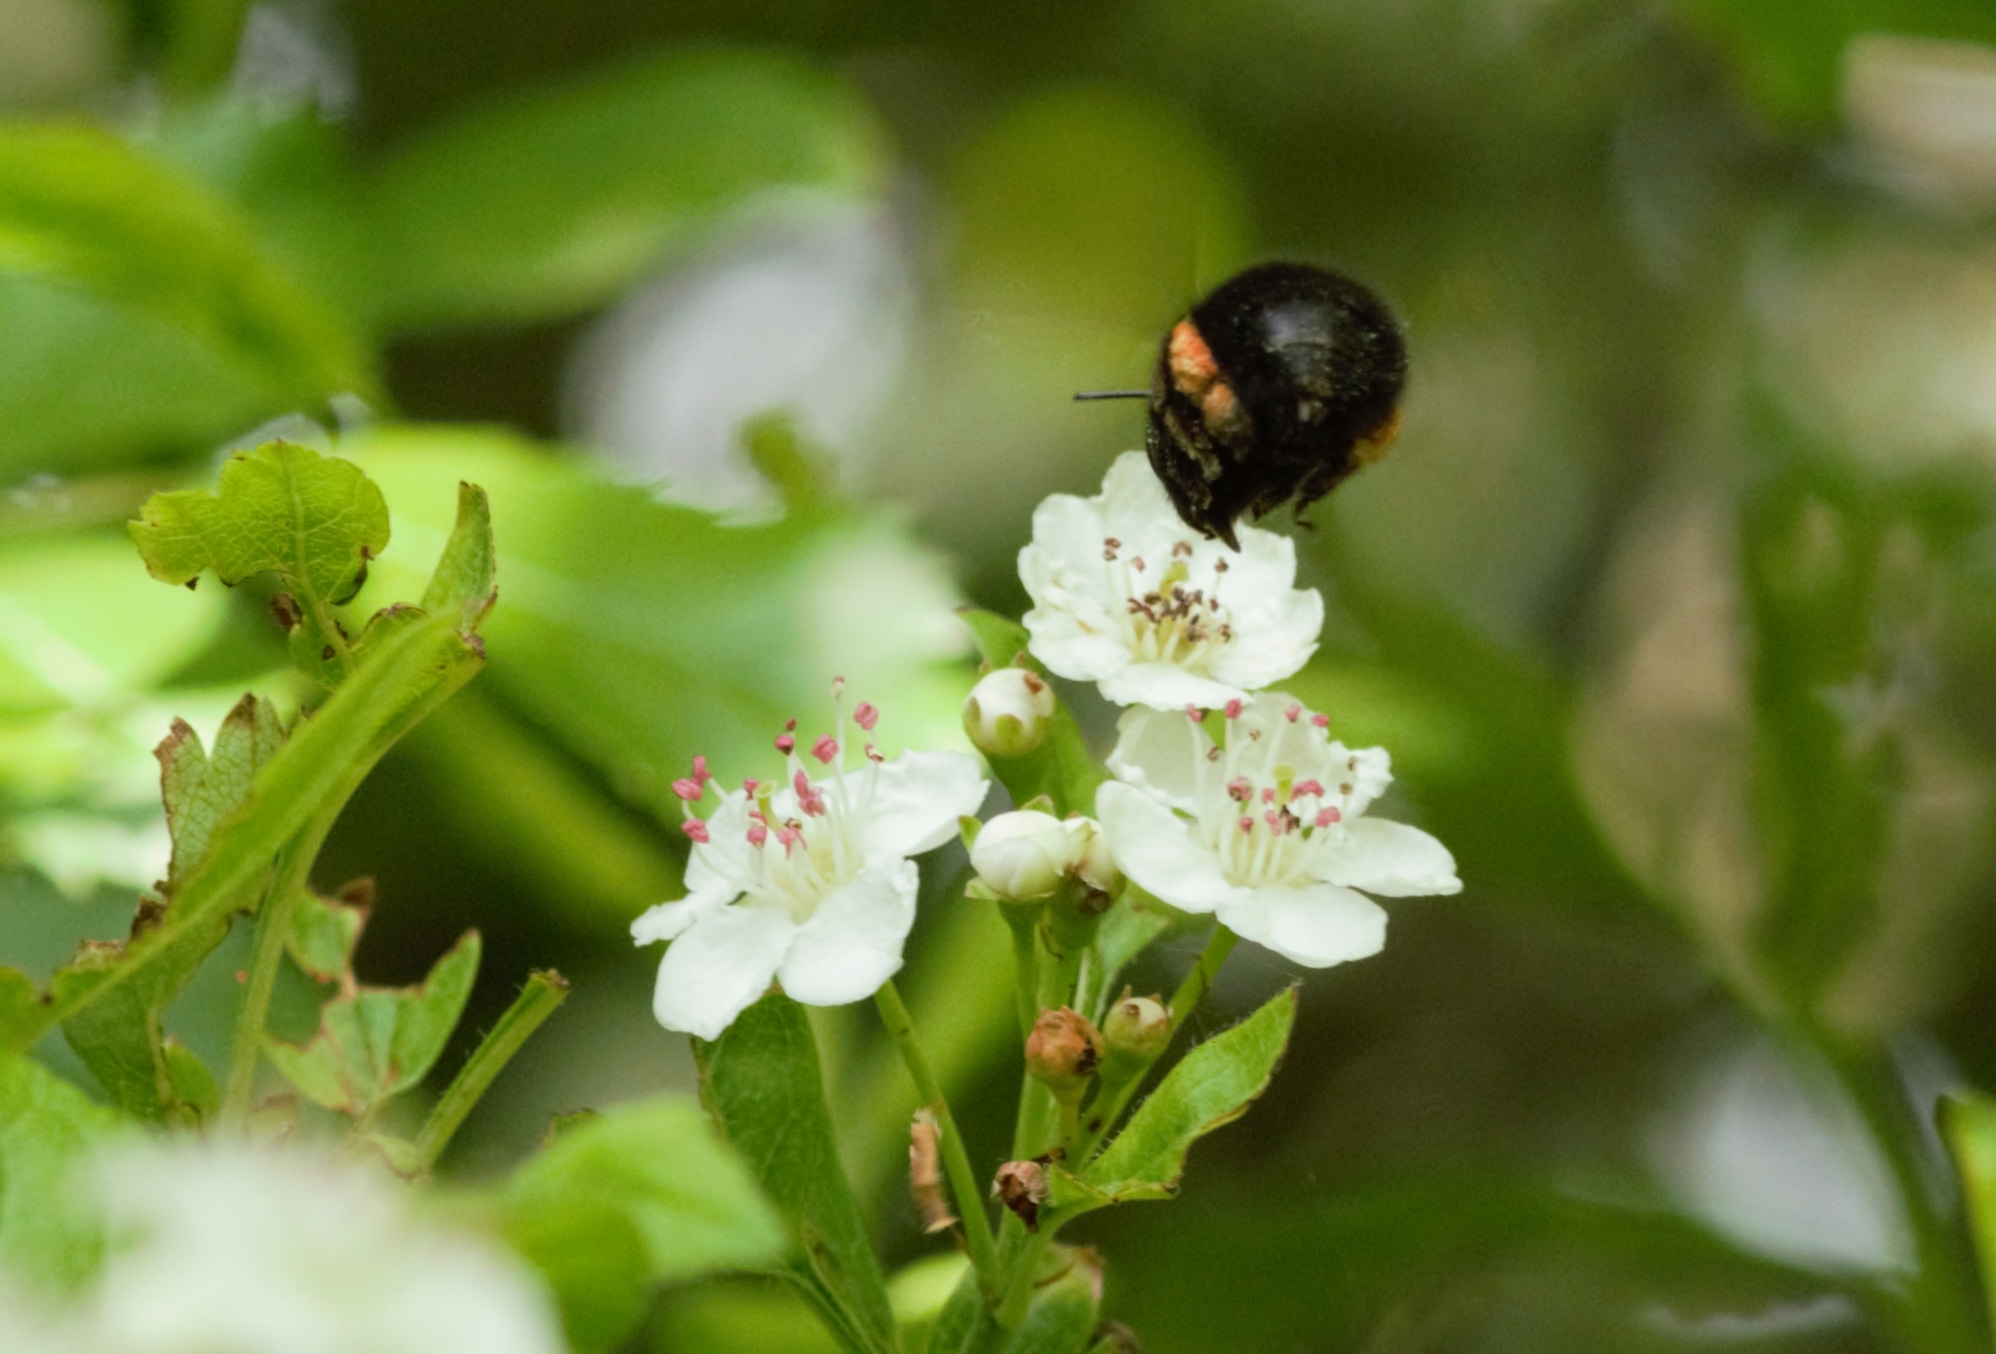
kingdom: Animalia
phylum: Arthropoda
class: Insecta
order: Hymenoptera
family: Apidae
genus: Anthophora
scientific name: Anthophora plumipes
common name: Hairy-footed flower bee
